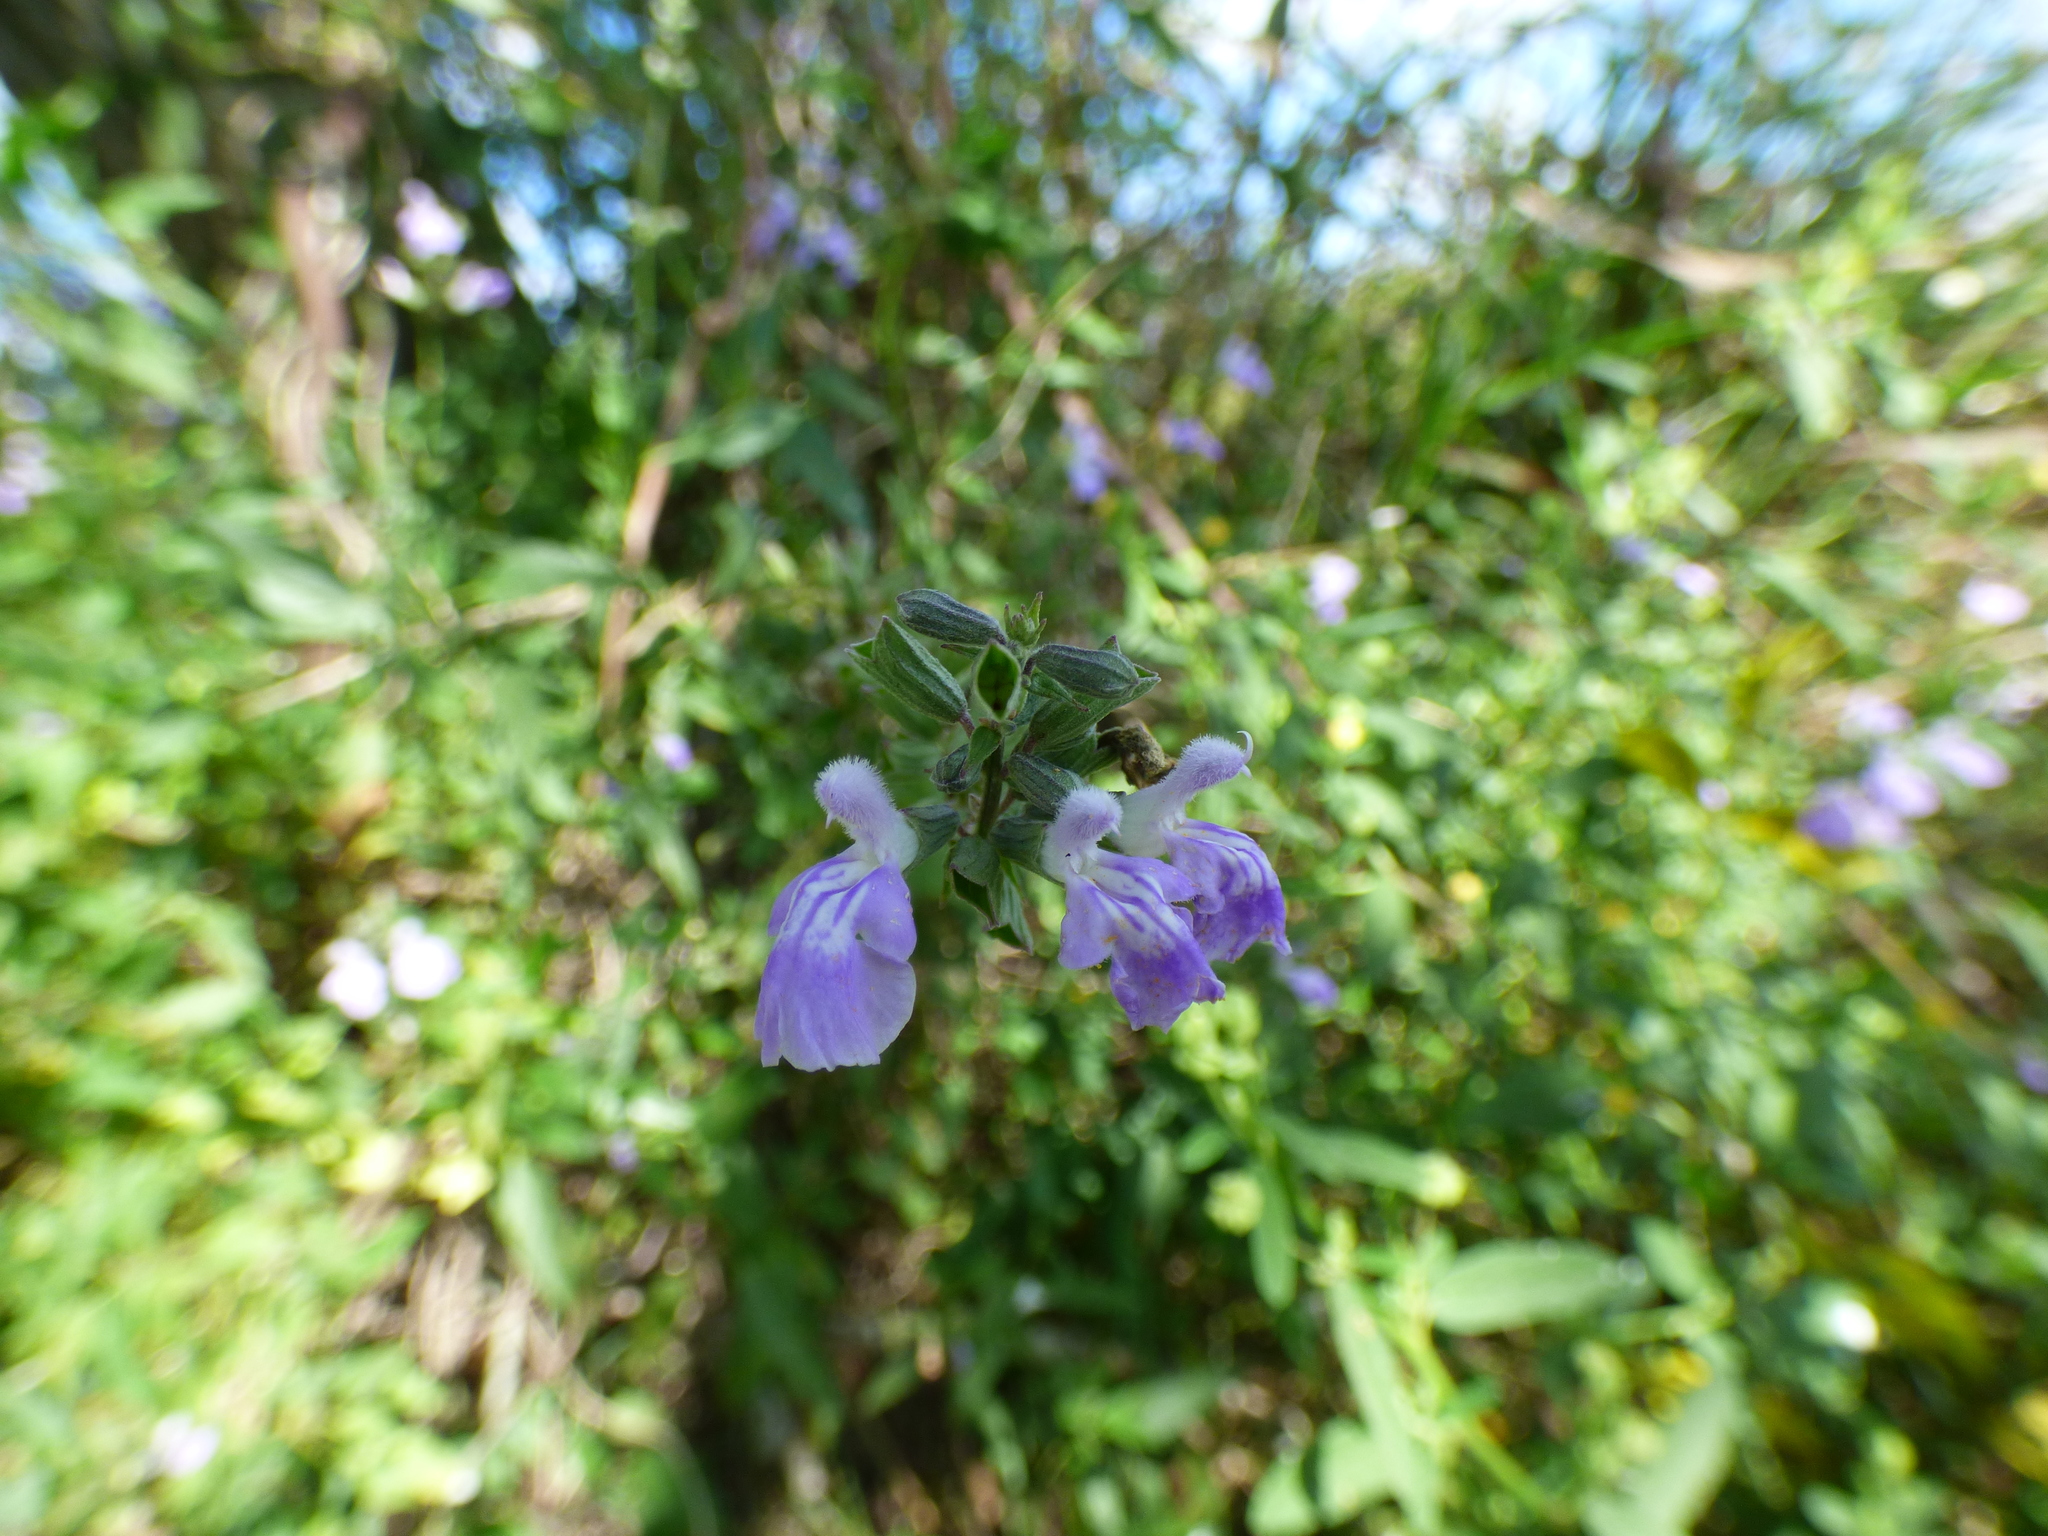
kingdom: Plantae
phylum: Tracheophyta
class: Magnoliopsida
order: Lamiales
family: Lamiaceae
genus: Salvia
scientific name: Salvia pallida
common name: Pale sage
